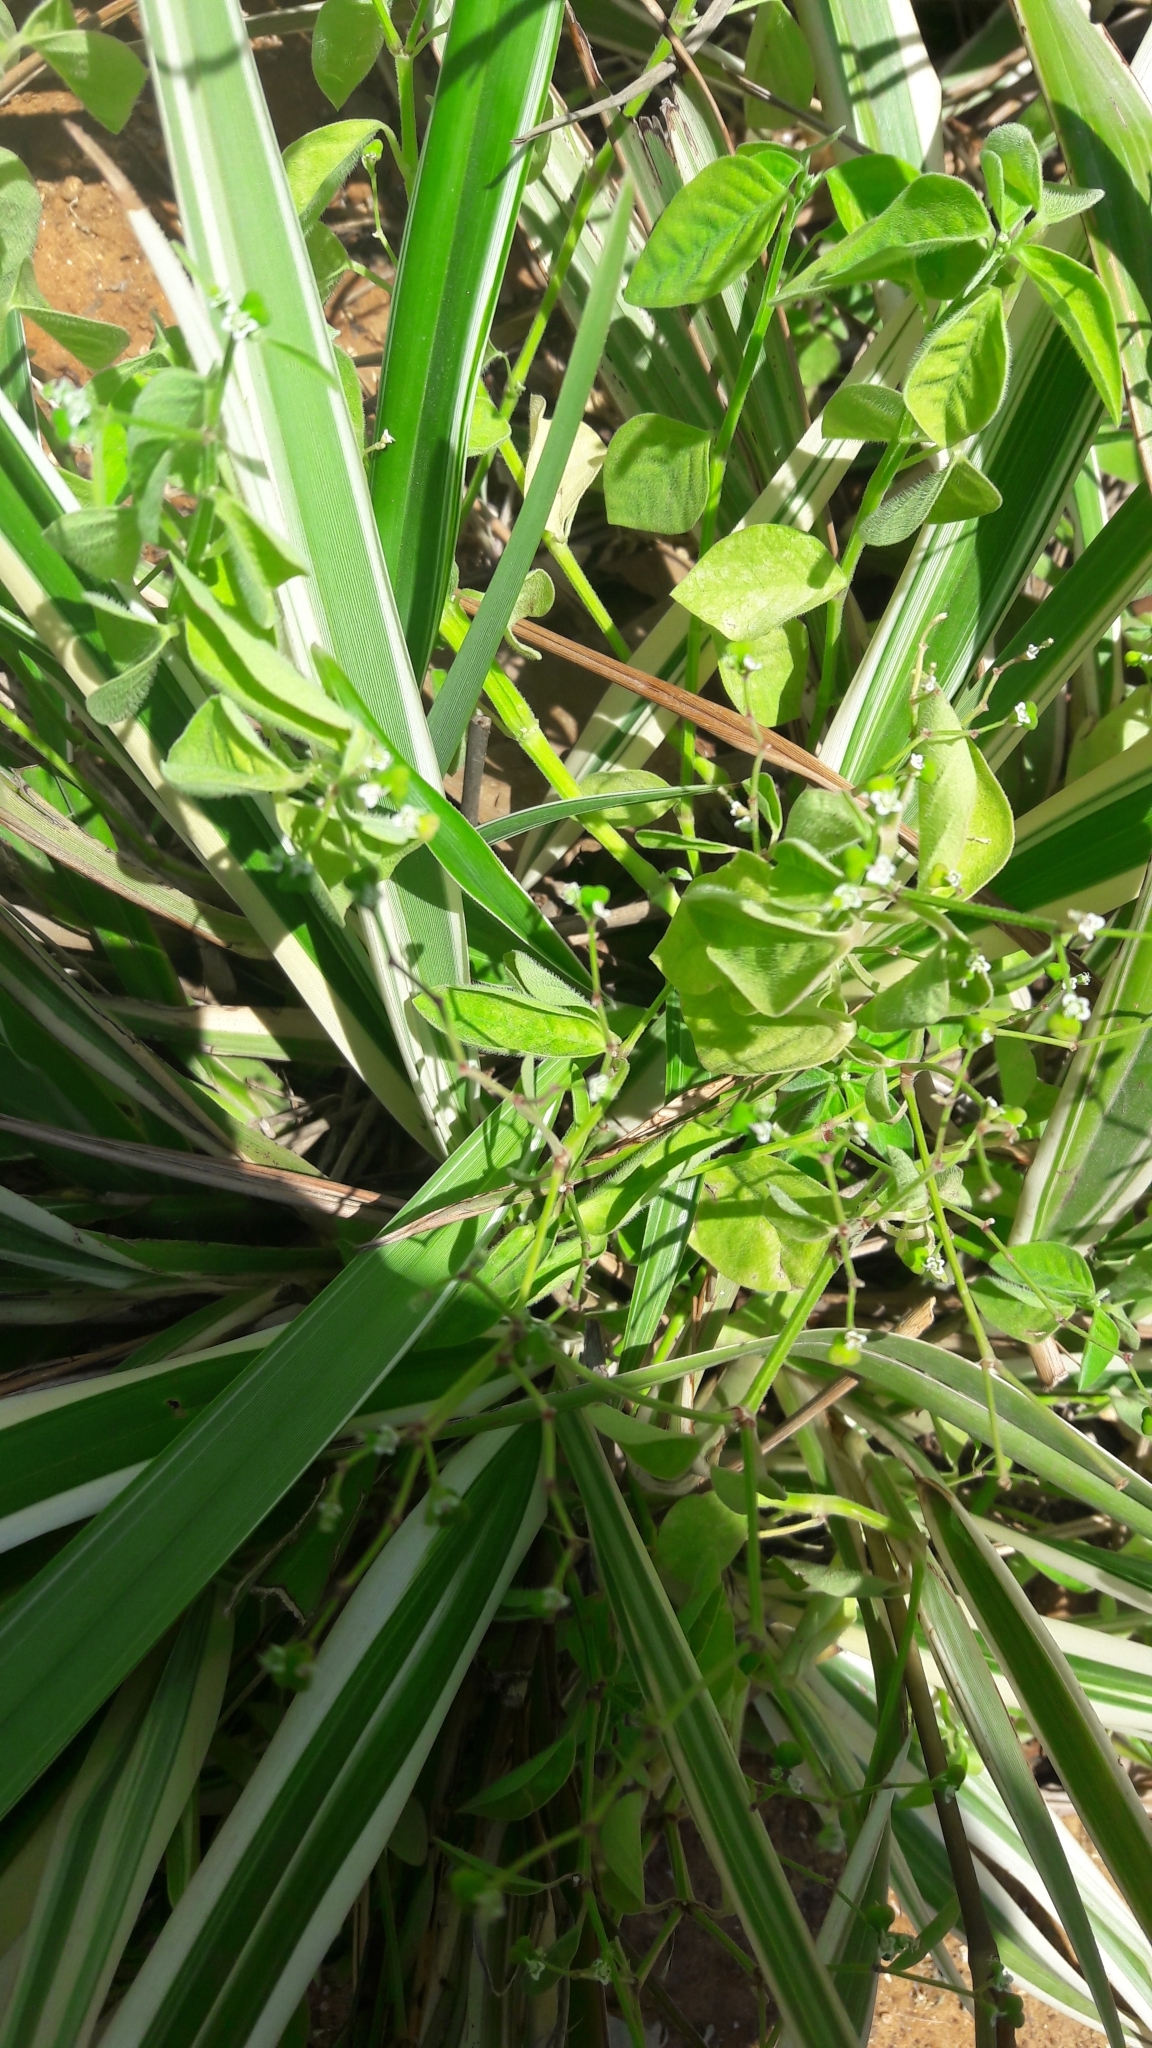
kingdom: Plantae
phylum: Tracheophyta
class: Magnoliopsida
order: Malpighiales
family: Euphorbiaceae
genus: Euphorbia
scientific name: Euphorbia graminea
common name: Grassleaf spurge
